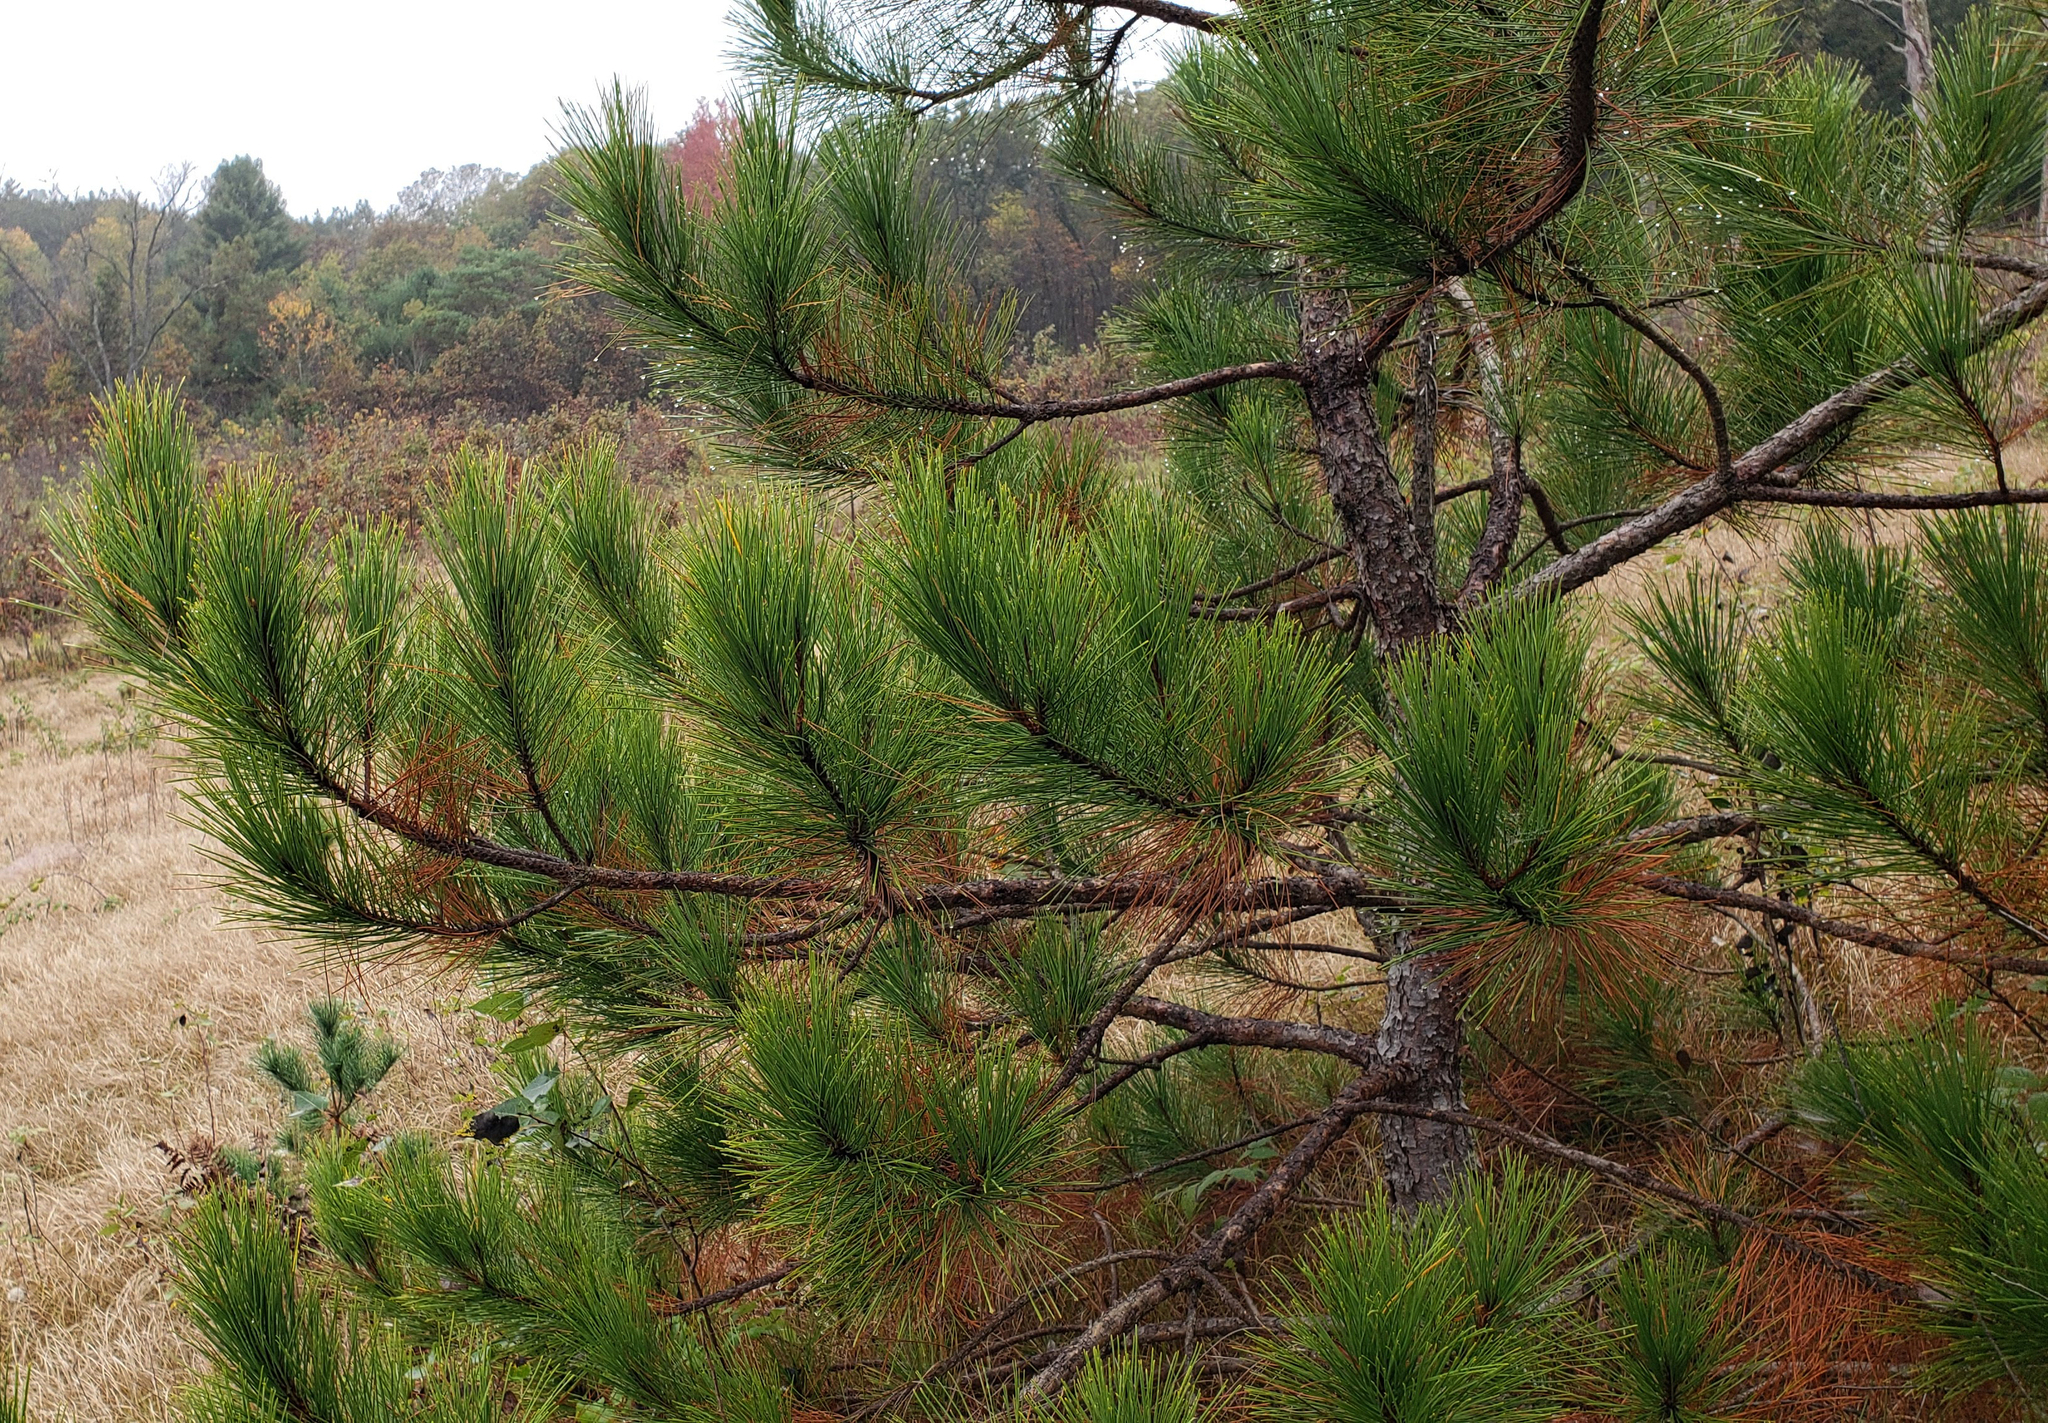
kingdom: Plantae
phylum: Tracheophyta
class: Pinopsida
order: Pinales
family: Pinaceae
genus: Pinus
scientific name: Pinus resinosa
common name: Norway pine
